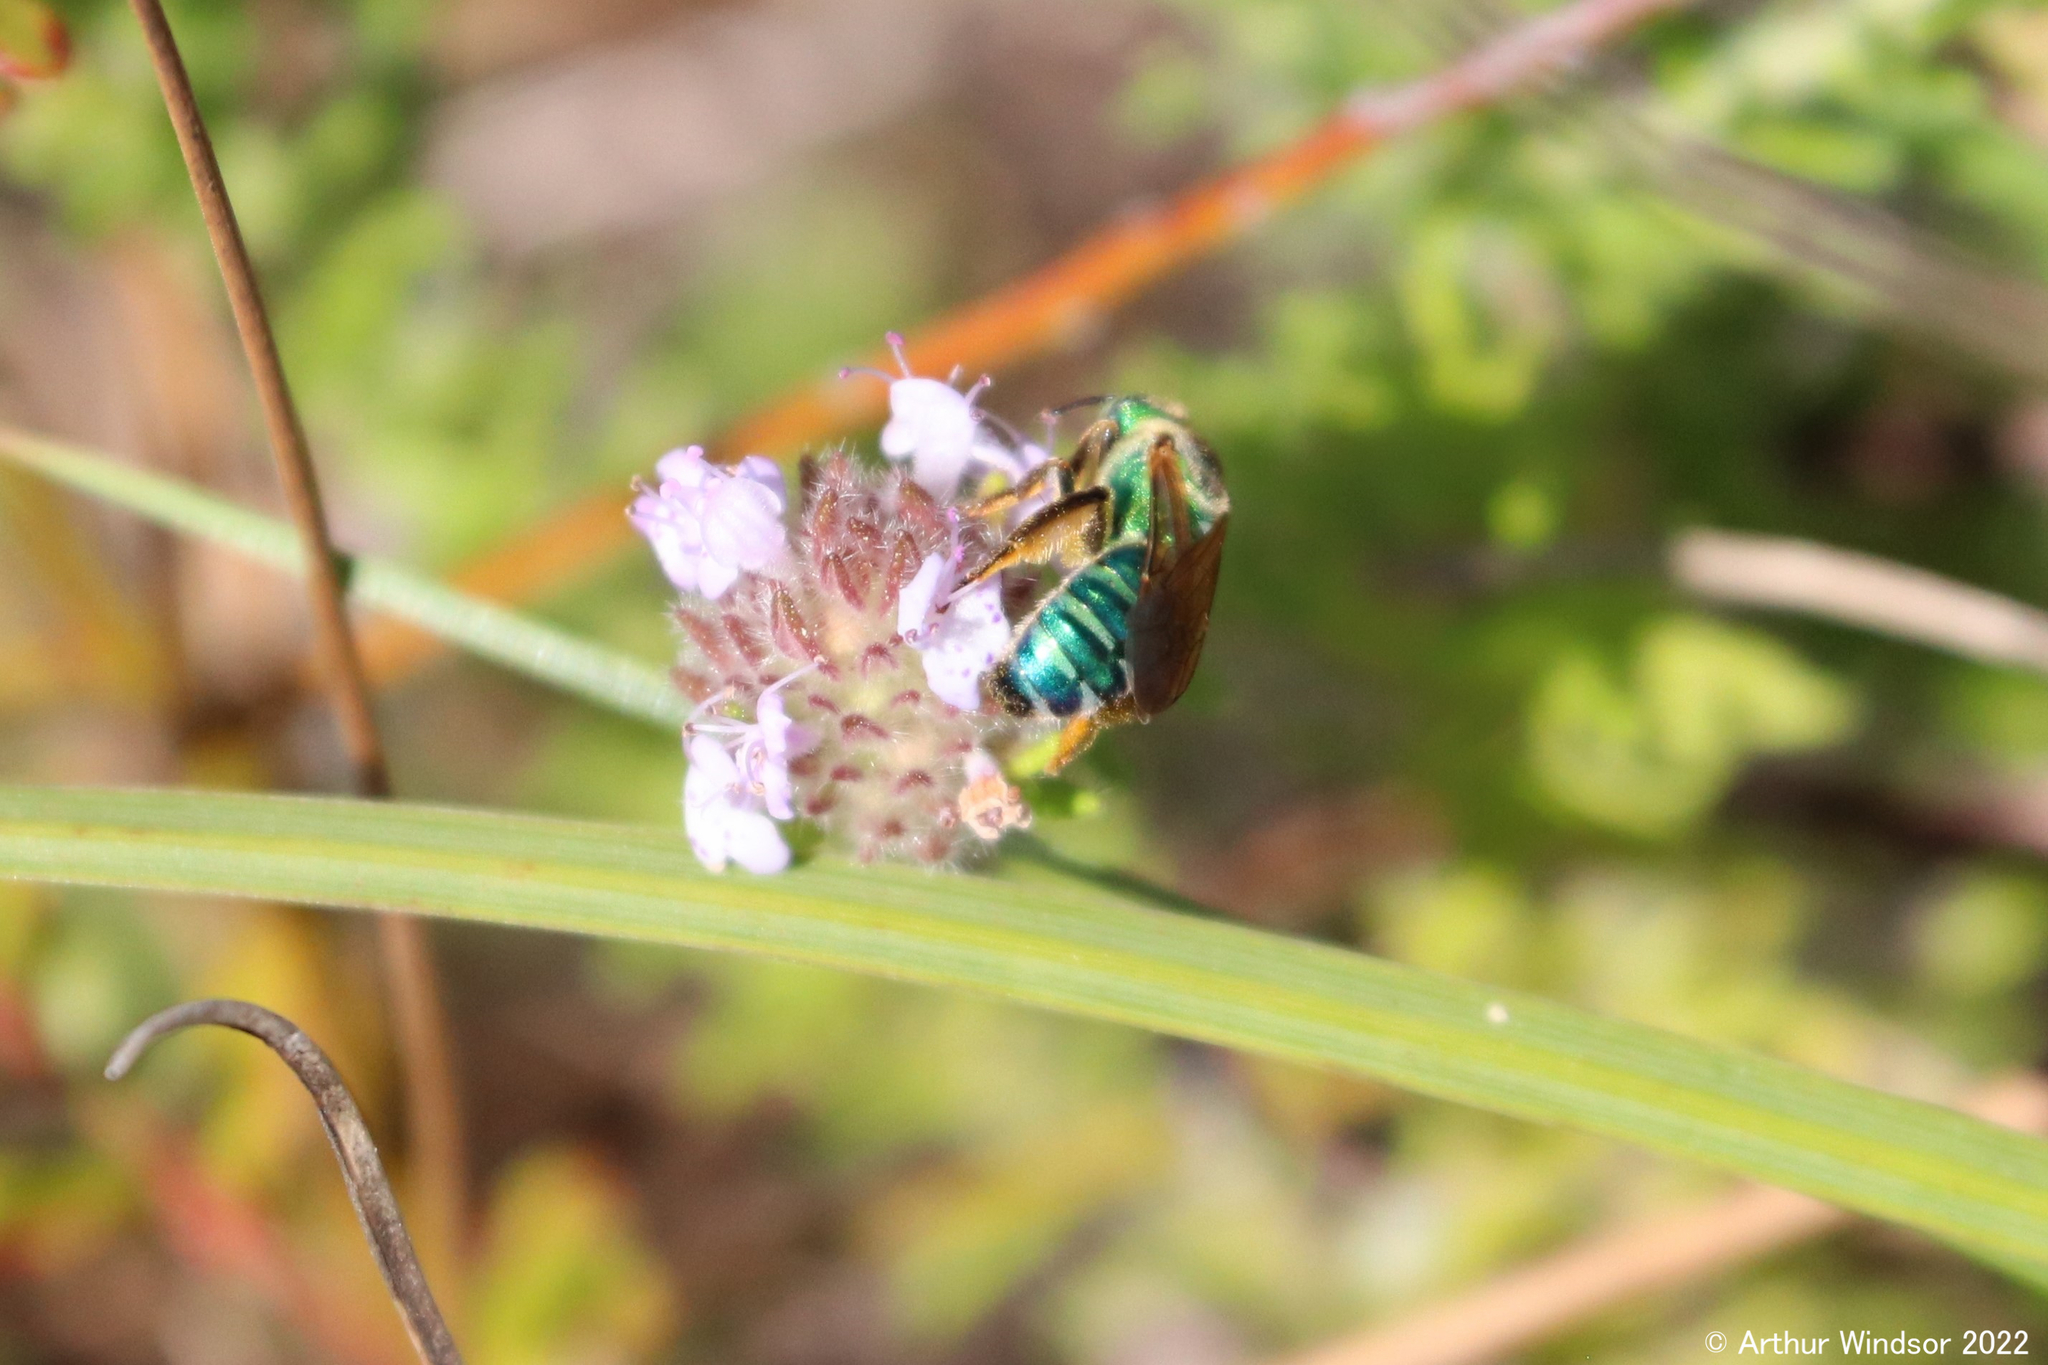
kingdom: Animalia
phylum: Arthropoda
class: Insecta
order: Hymenoptera
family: Halictidae
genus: Agapostemon
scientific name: Agapostemon splendens
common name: Brown-winged striped sweat bee
